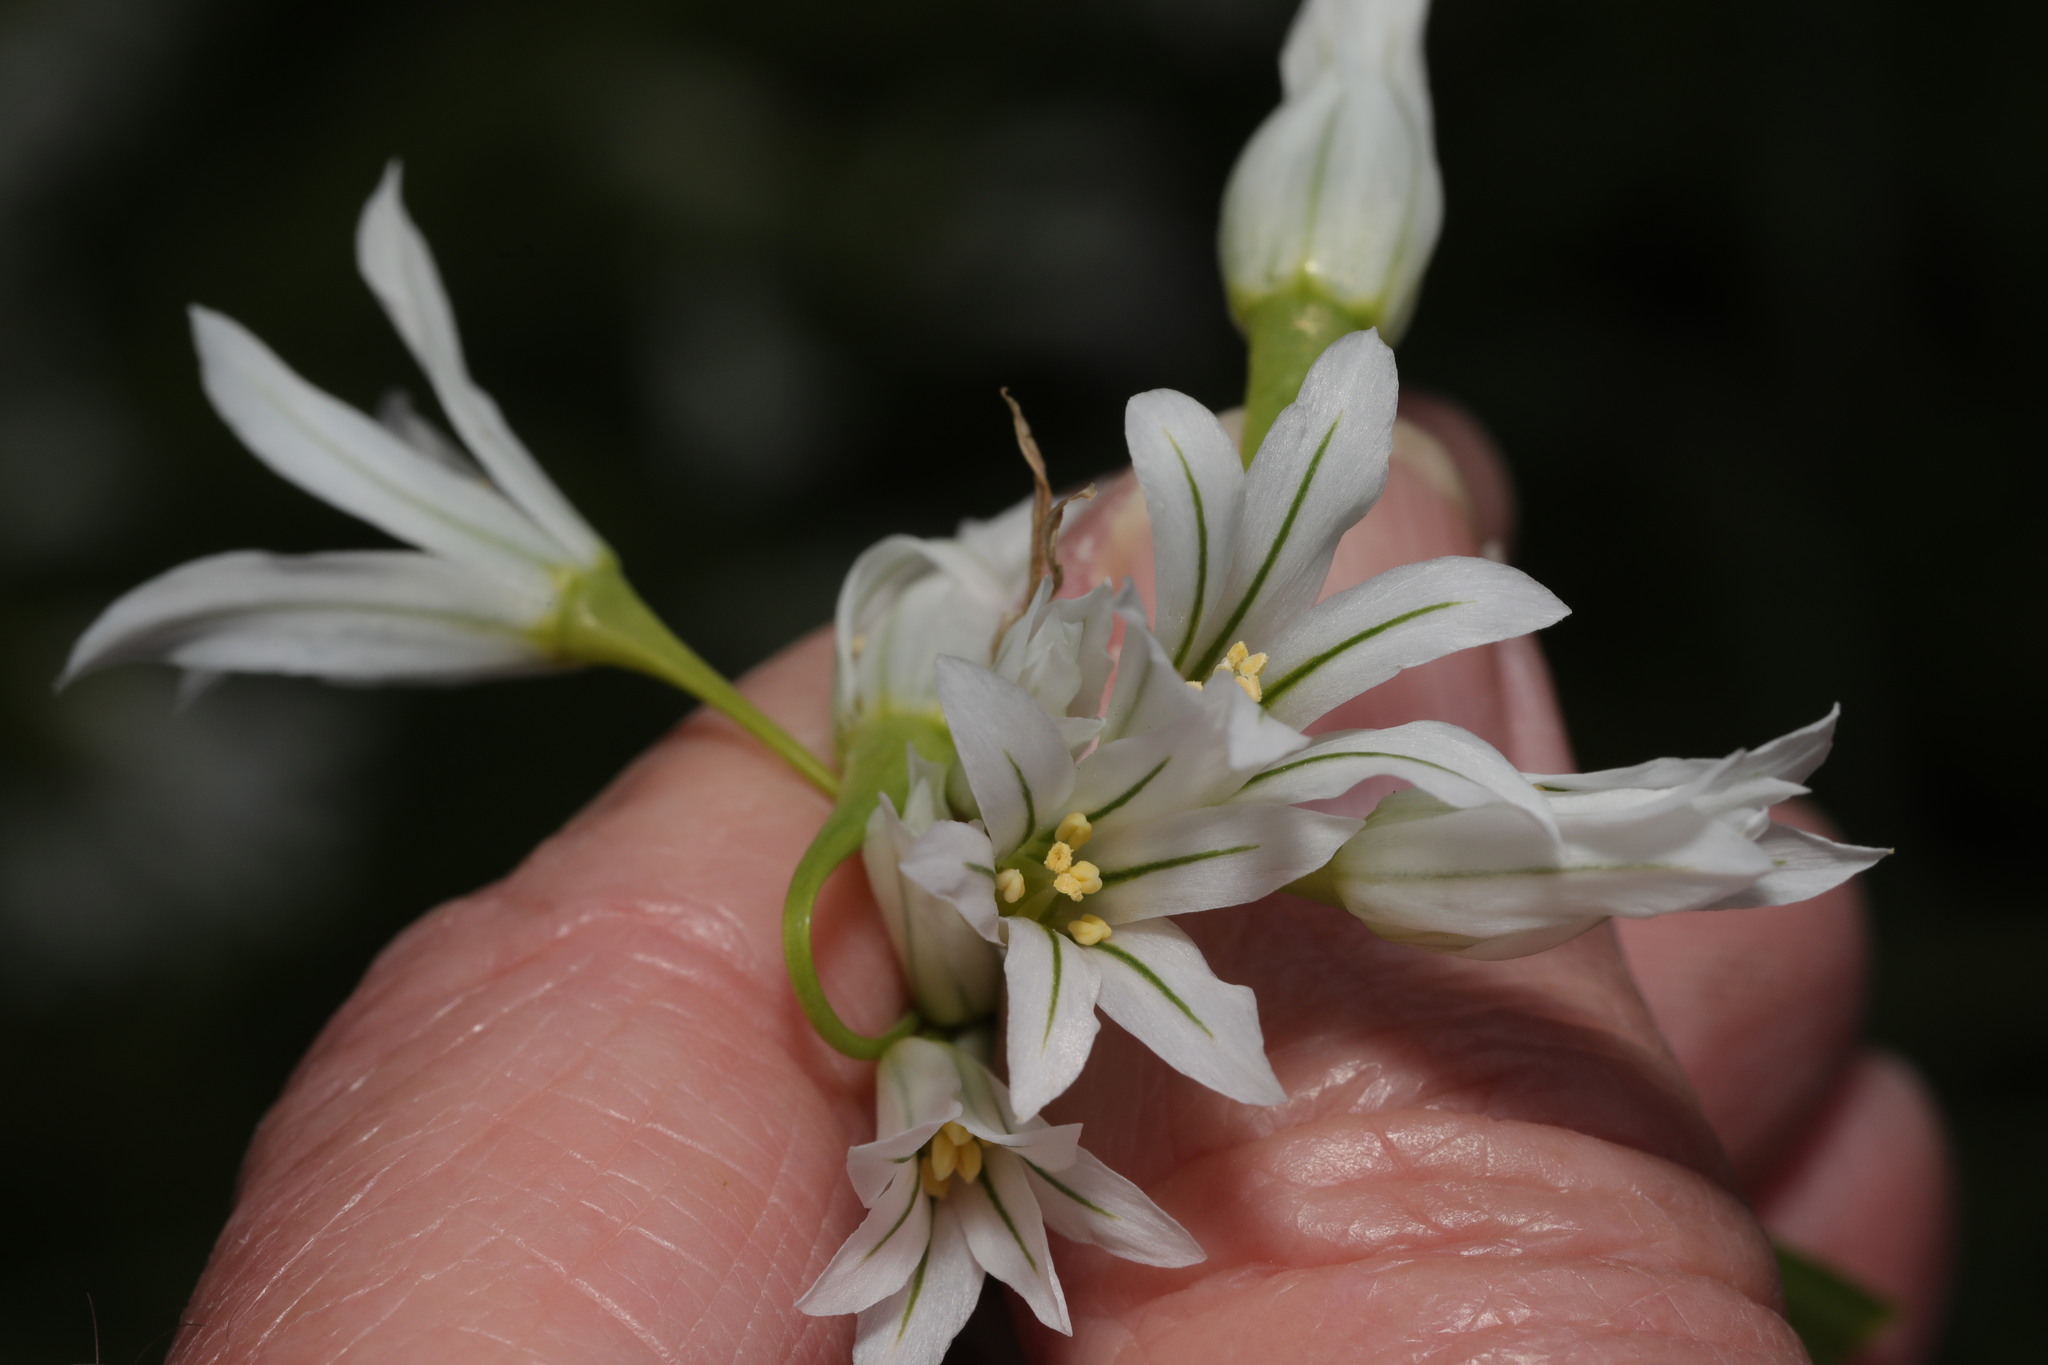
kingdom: Plantae
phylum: Tracheophyta
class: Liliopsida
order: Asparagales
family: Amaryllidaceae
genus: Allium
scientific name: Allium triquetrum
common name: Three-cornered garlic
